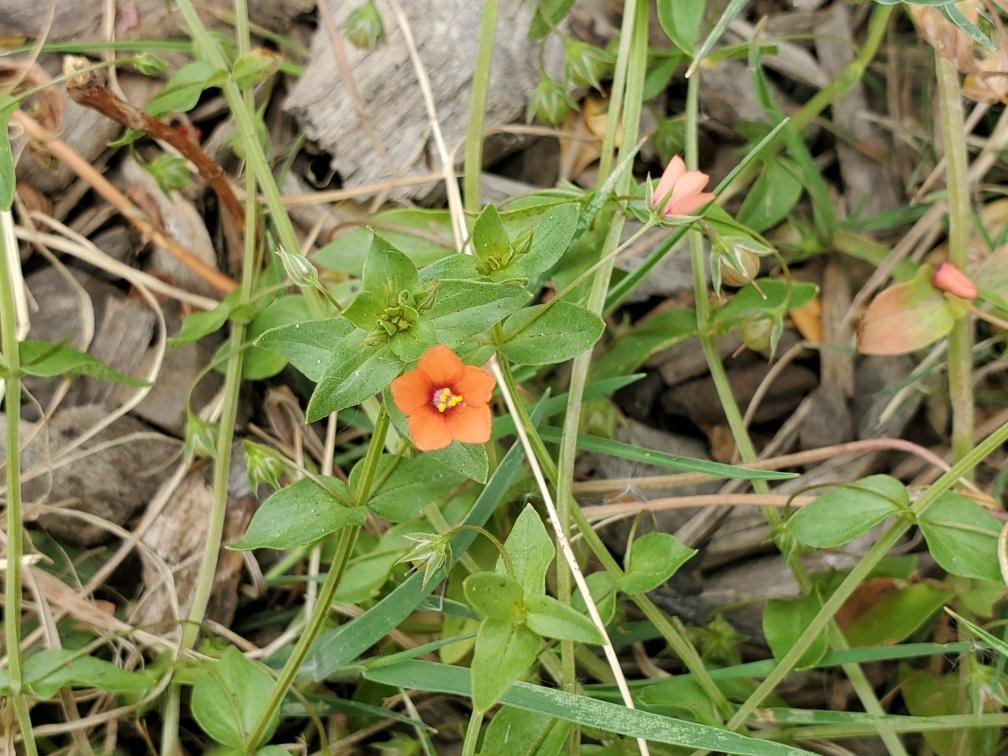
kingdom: Plantae
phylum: Tracheophyta
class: Magnoliopsida
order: Ericales
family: Primulaceae
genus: Lysimachia
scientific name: Lysimachia arvensis
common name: Scarlet pimpernel
